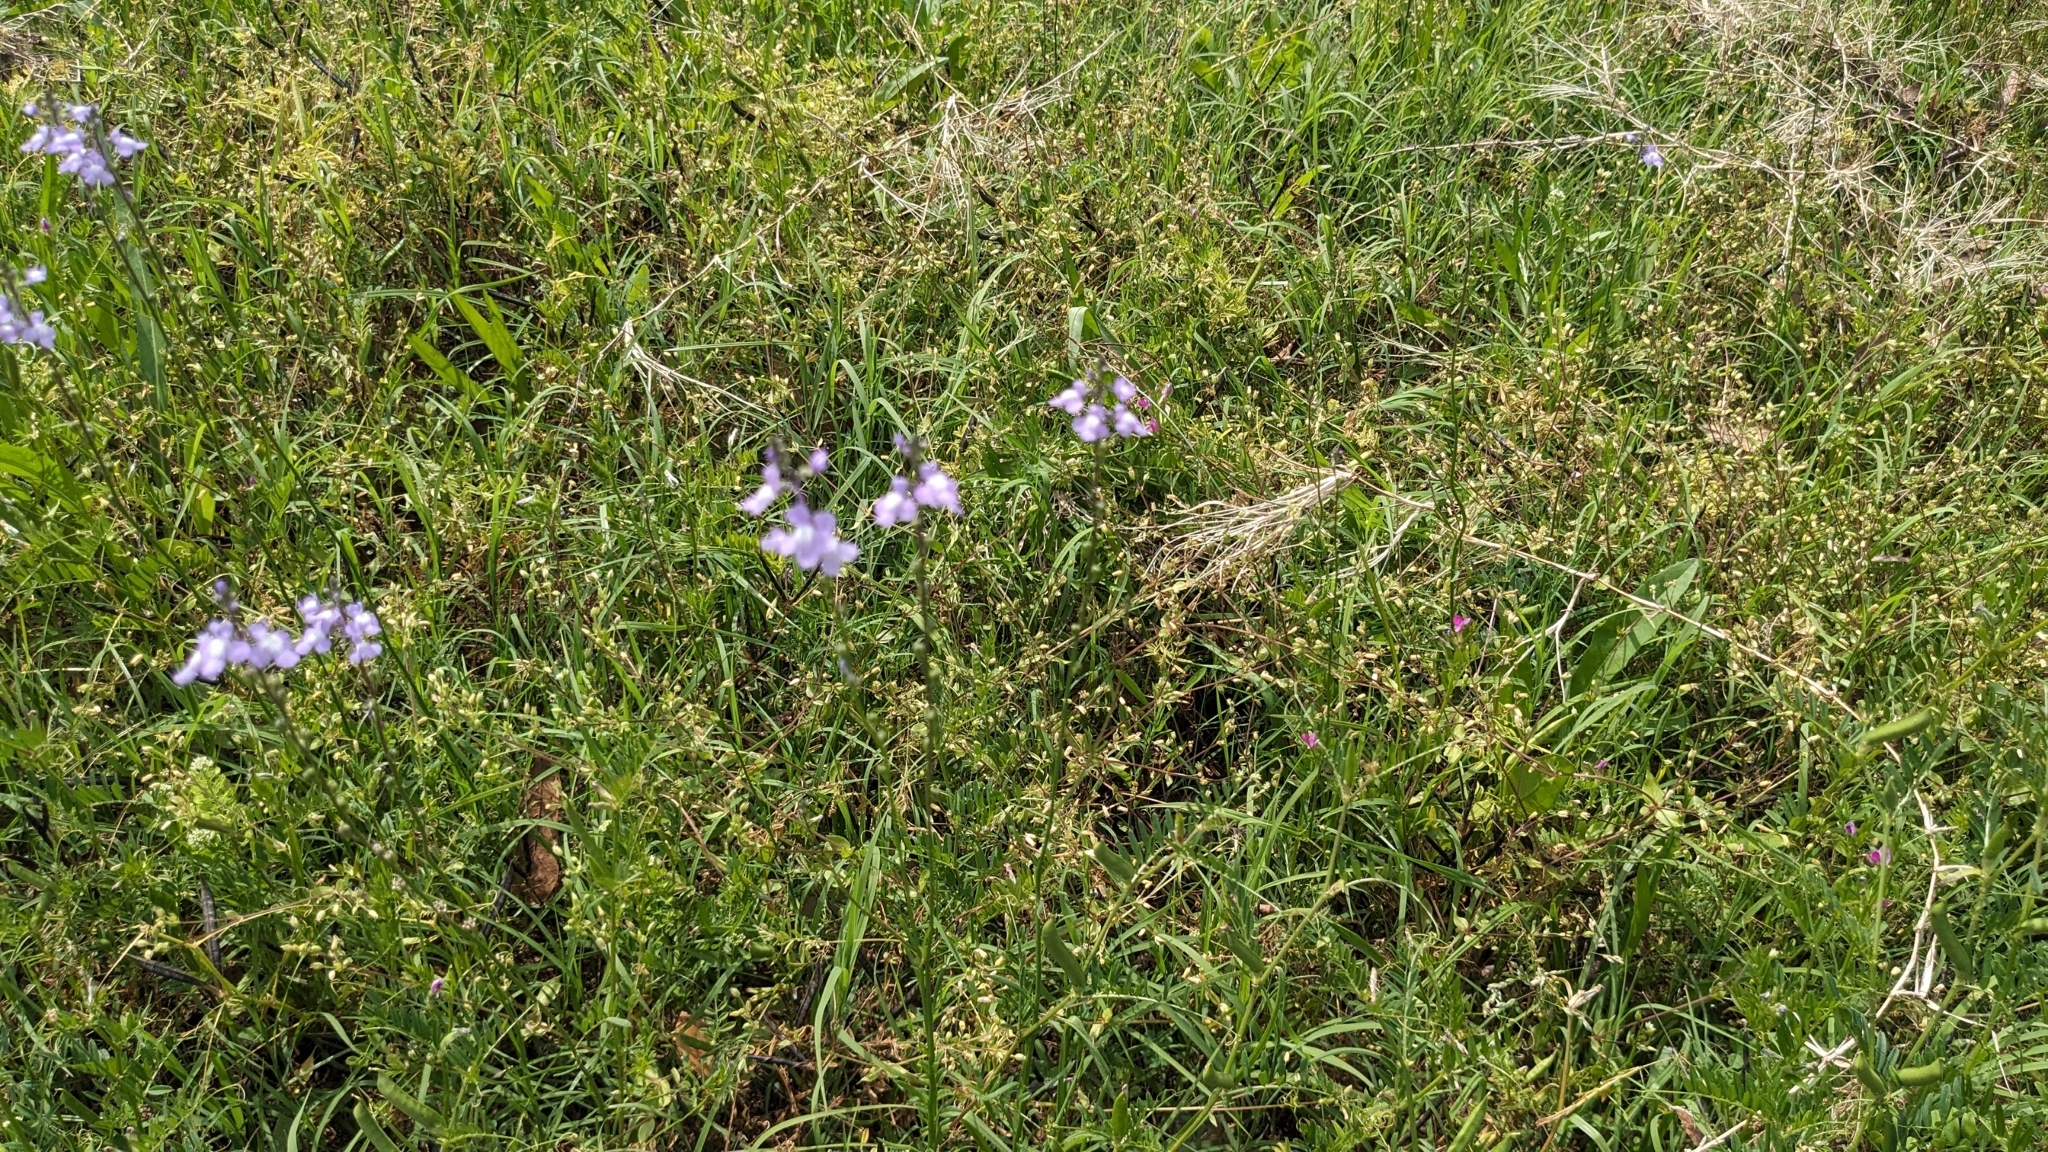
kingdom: Plantae
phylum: Tracheophyta
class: Magnoliopsida
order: Lamiales
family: Plantaginaceae
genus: Nuttallanthus
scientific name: Nuttallanthus canadensis
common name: Blue toadflax
